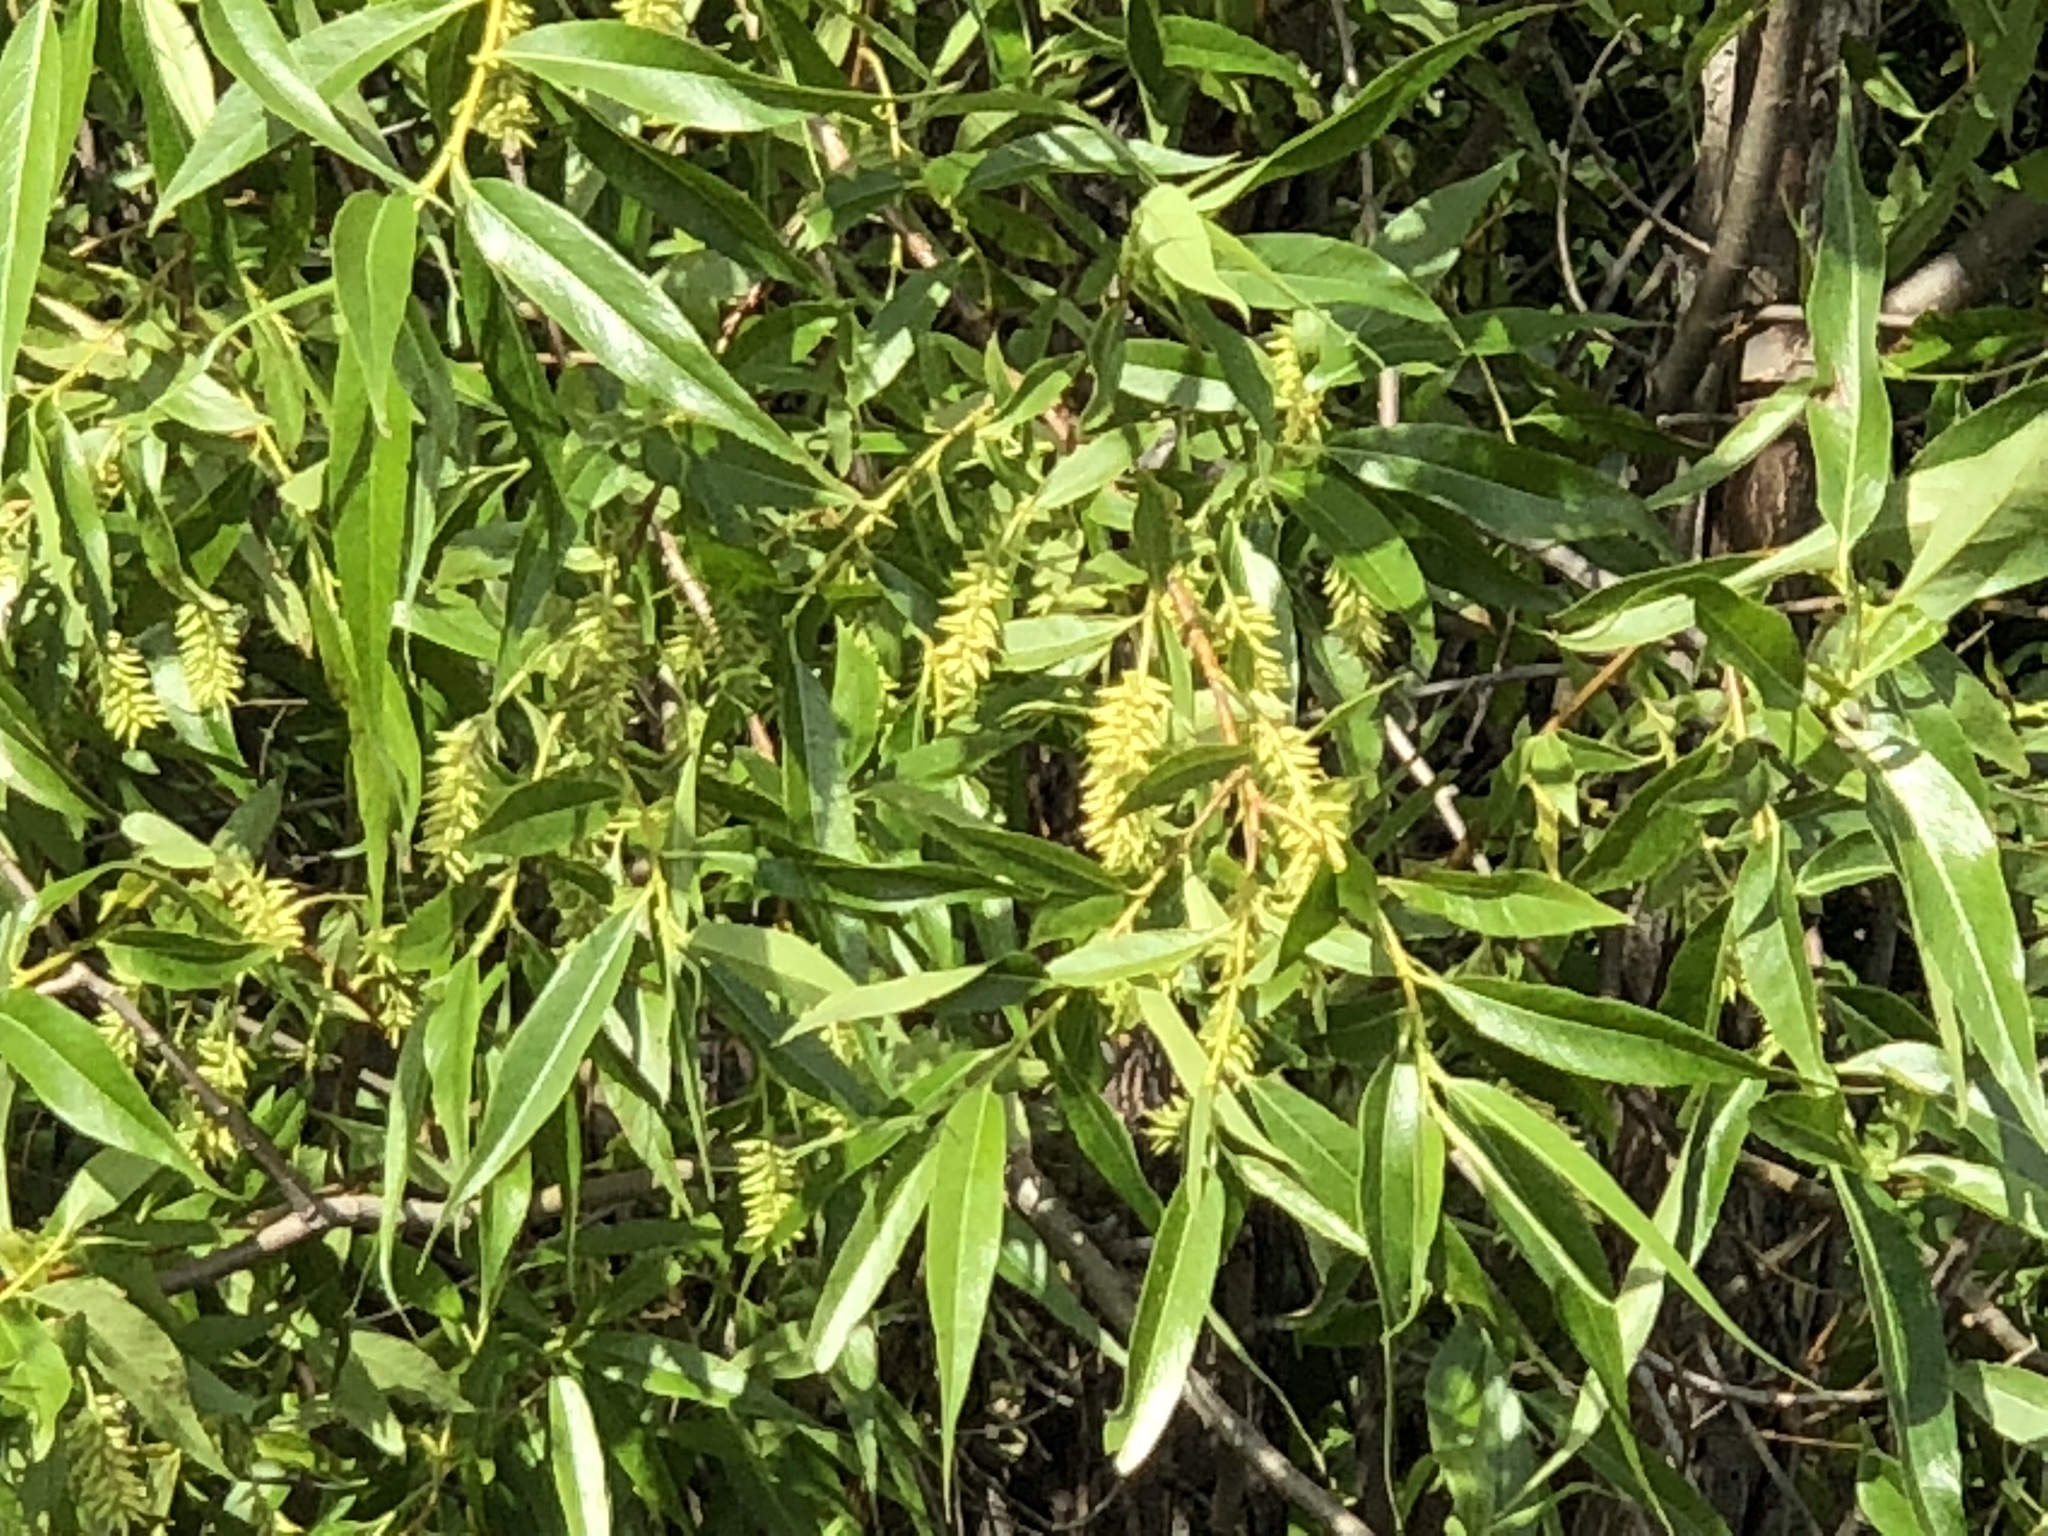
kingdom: Plantae
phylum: Tracheophyta
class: Magnoliopsida
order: Malpighiales
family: Salicaceae
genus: Salix
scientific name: Salix lucida
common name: Shining willow
